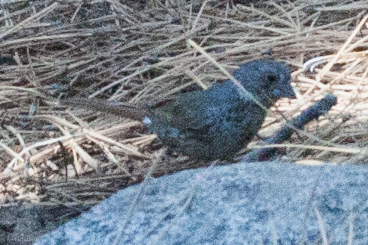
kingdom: Animalia
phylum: Chordata
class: Aves
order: Passeriformes
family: Passerellidae
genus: Passerella
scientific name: Passerella iliaca
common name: Fox sparrow
